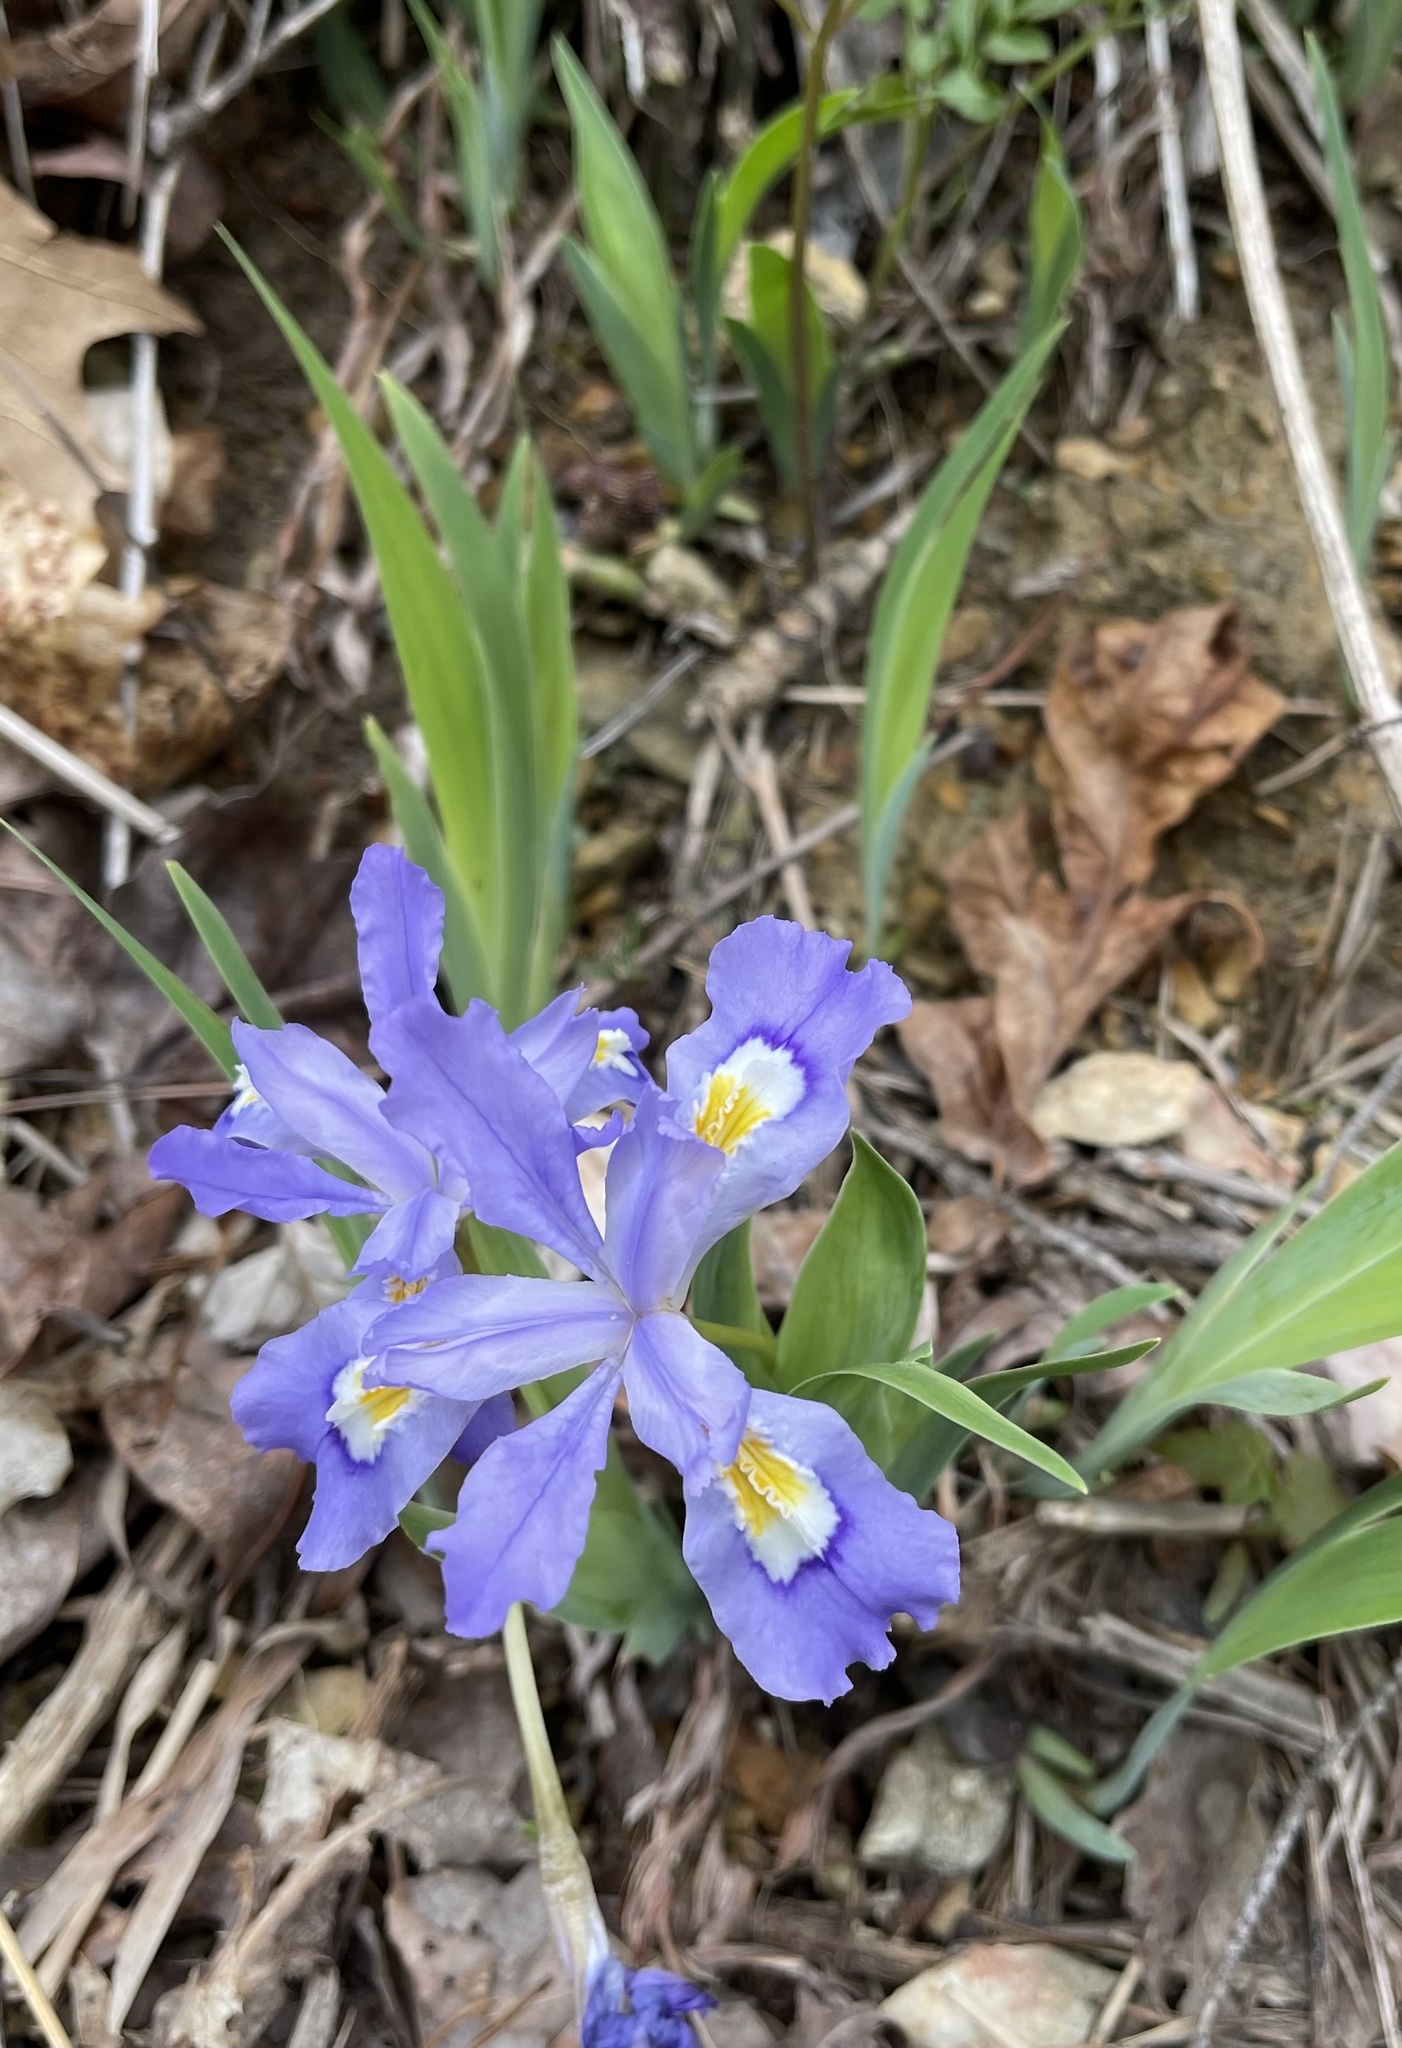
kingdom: Plantae
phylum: Tracheophyta
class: Liliopsida
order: Asparagales
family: Iridaceae
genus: Iris
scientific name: Iris cristata
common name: Crested iris
